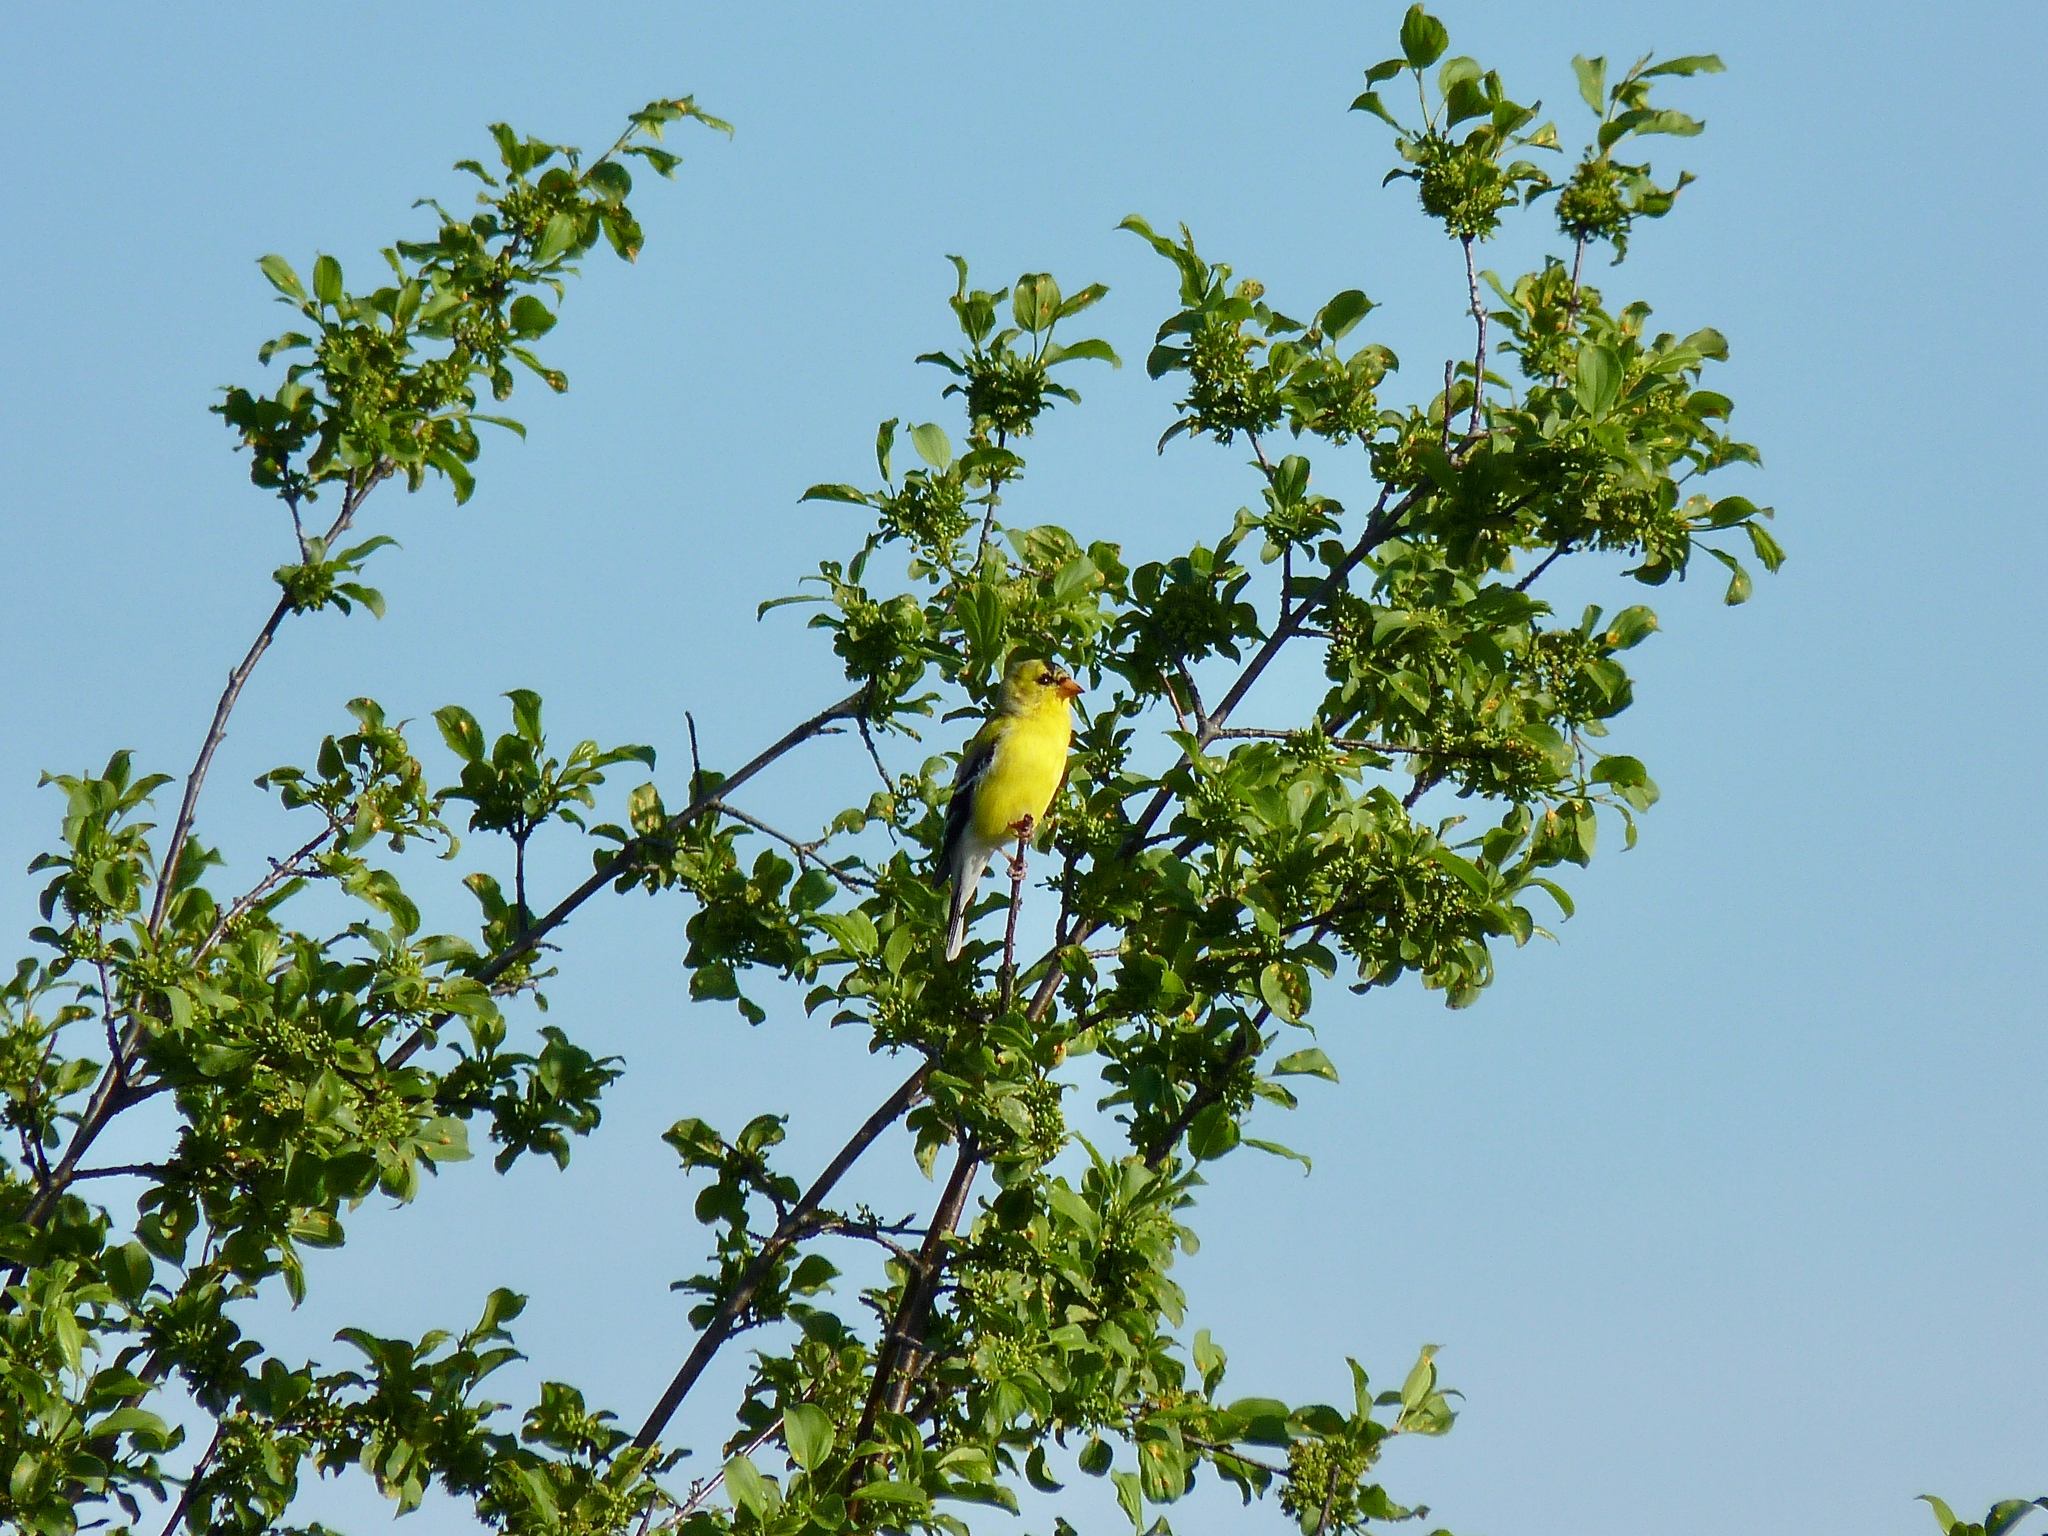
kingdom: Animalia
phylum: Chordata
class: Aves
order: Passeriformes
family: Fringillidae
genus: Spinus
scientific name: Spinus tristis
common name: American goldfinch
